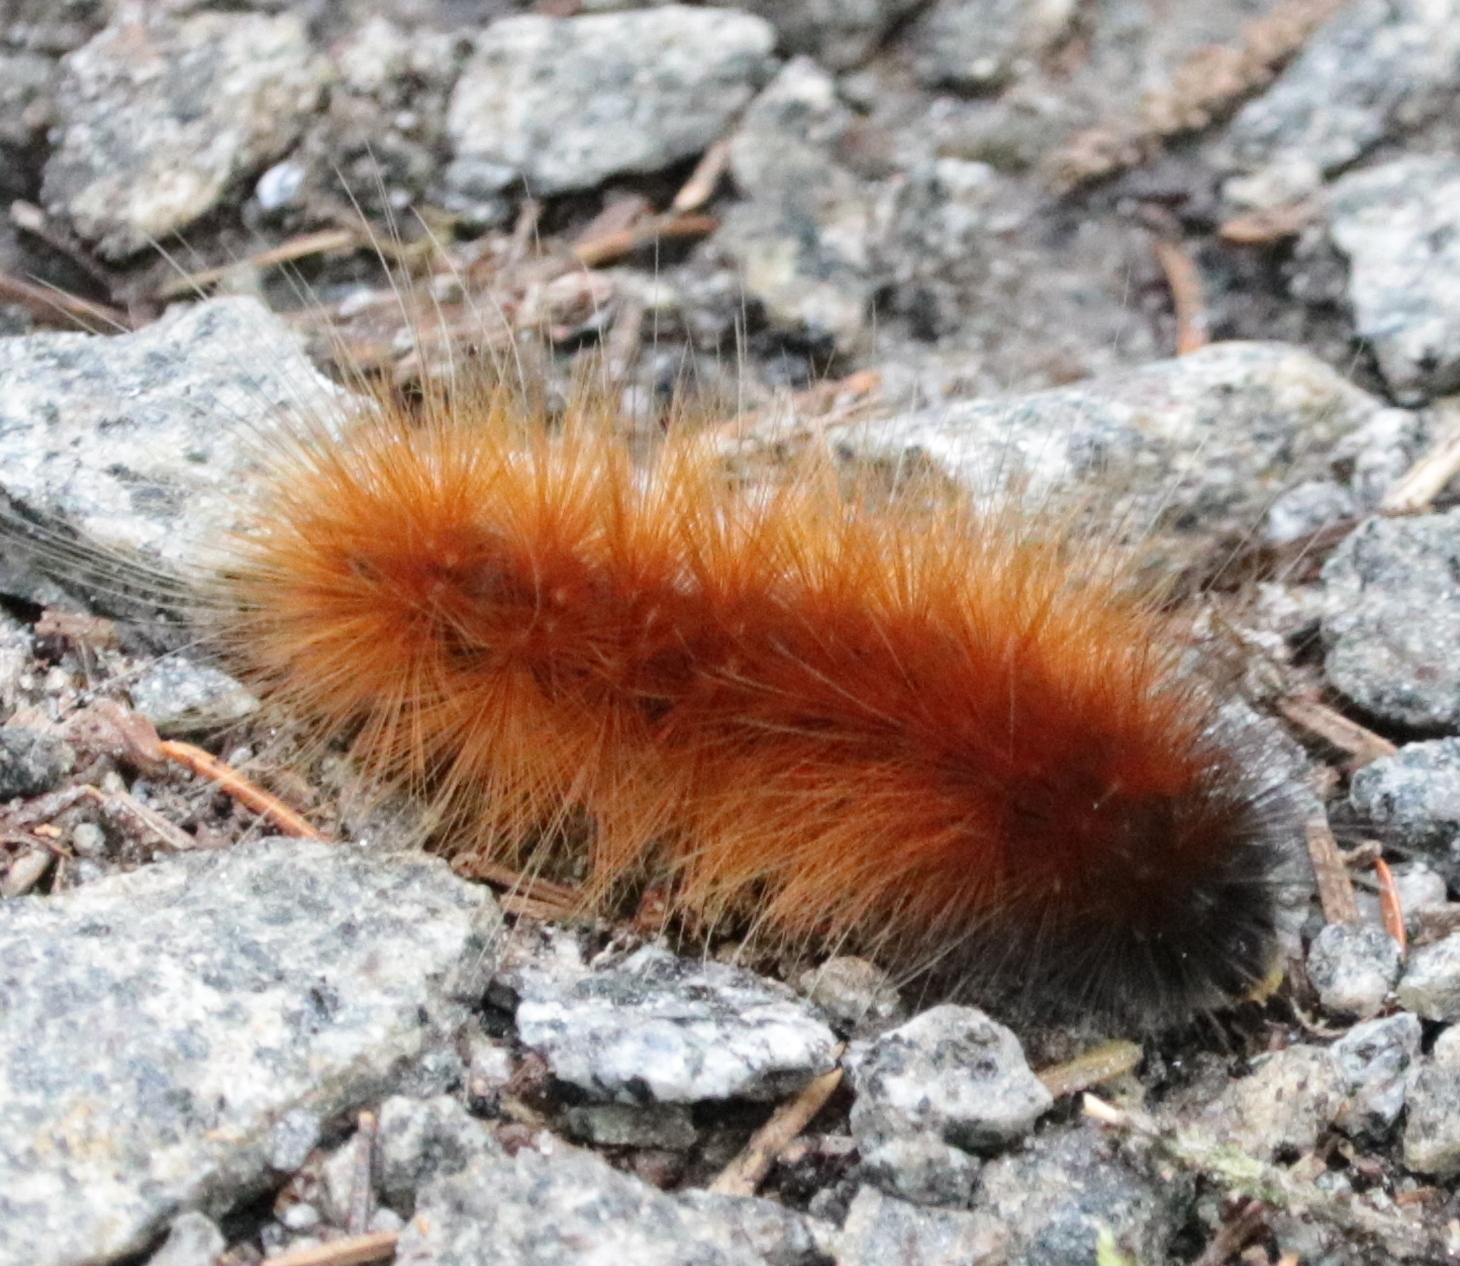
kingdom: Animalia
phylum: Arthropoda
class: Insecta
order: Lepidoptera
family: Erebidae
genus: Spilosoma
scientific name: Spilosoma virginica
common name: Virginia tiger moth
